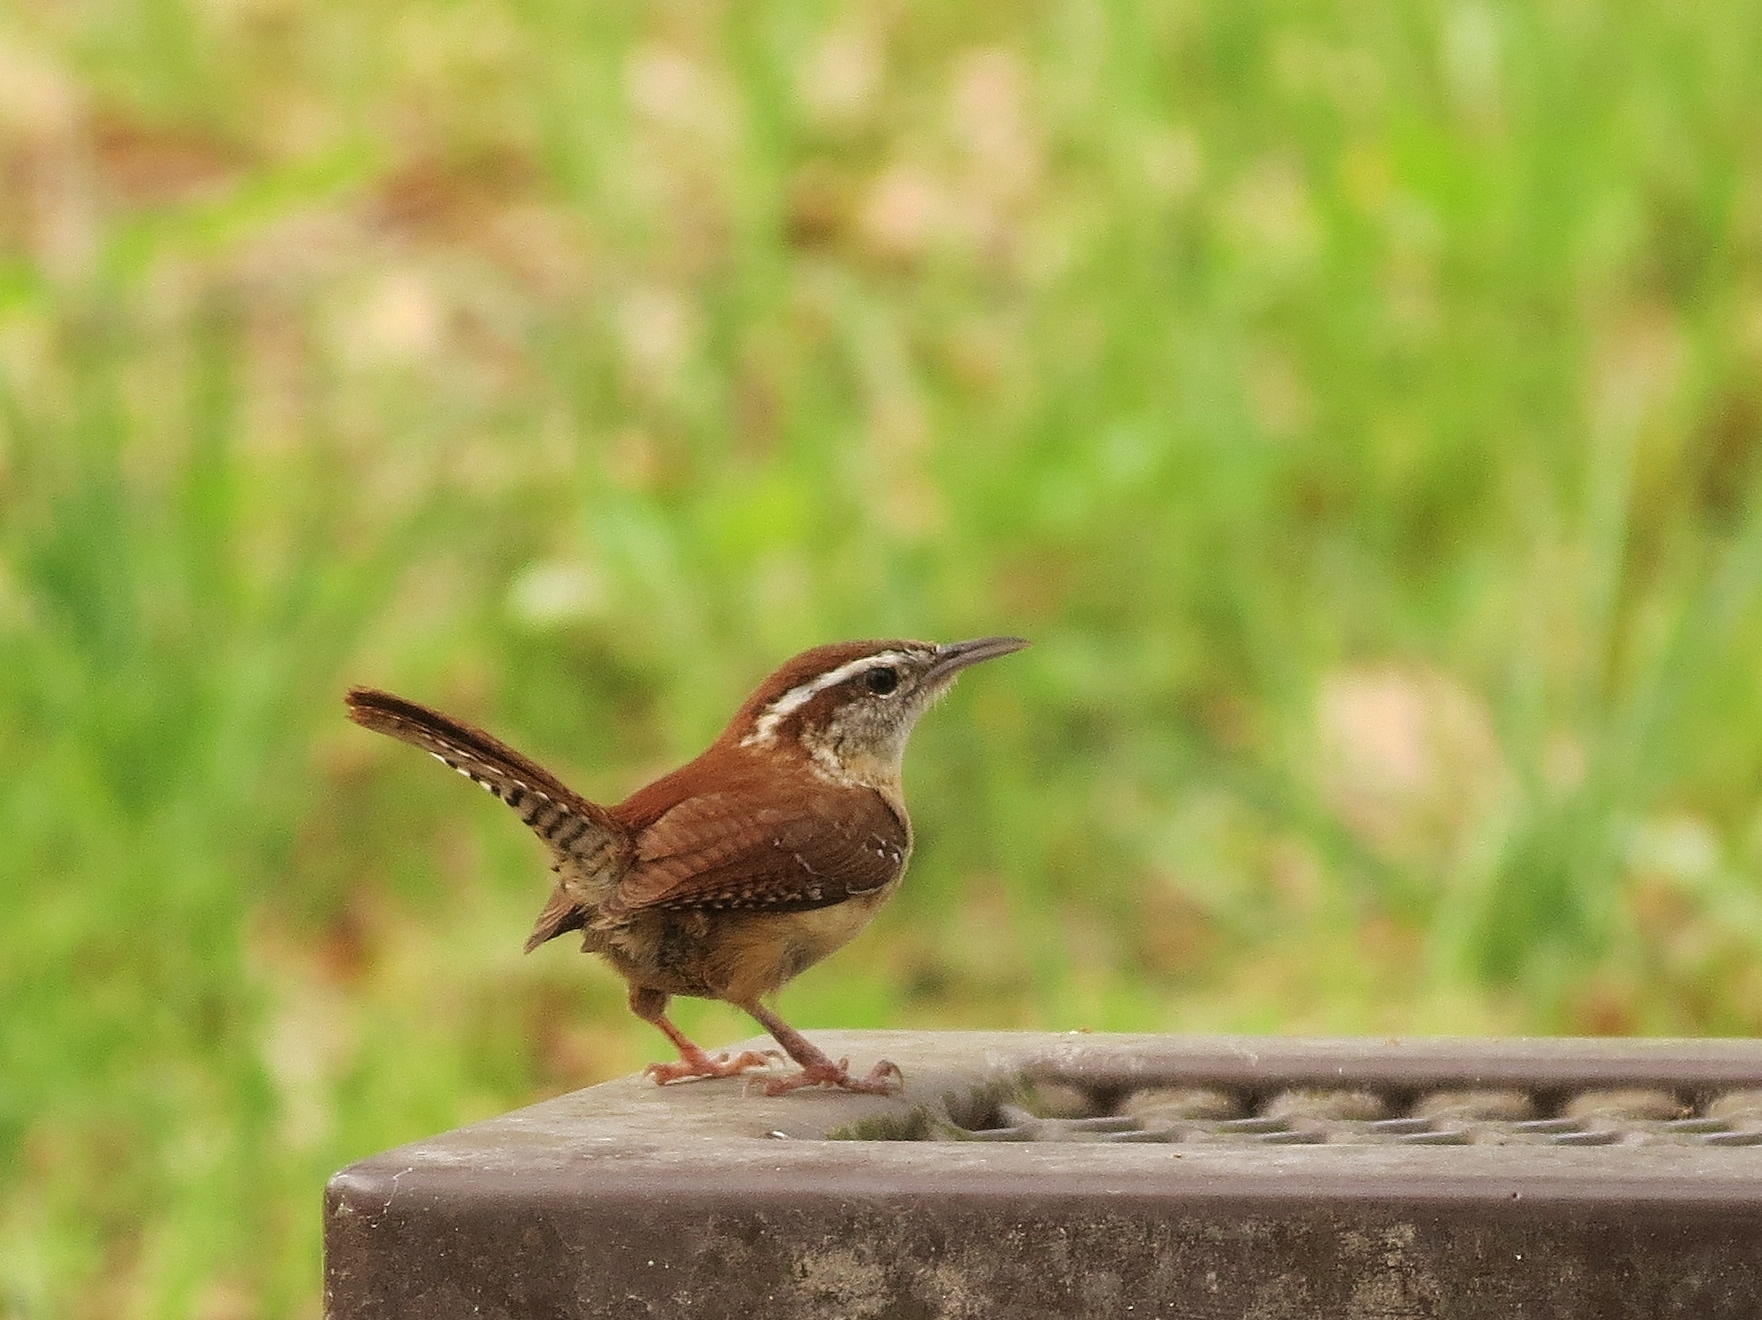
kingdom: Animalia
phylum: Chordata
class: Aves
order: Passeriformes
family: Troglodytidae
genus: Thryothorus
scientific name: Thryothorus ludovicianus
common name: Carolina wren
